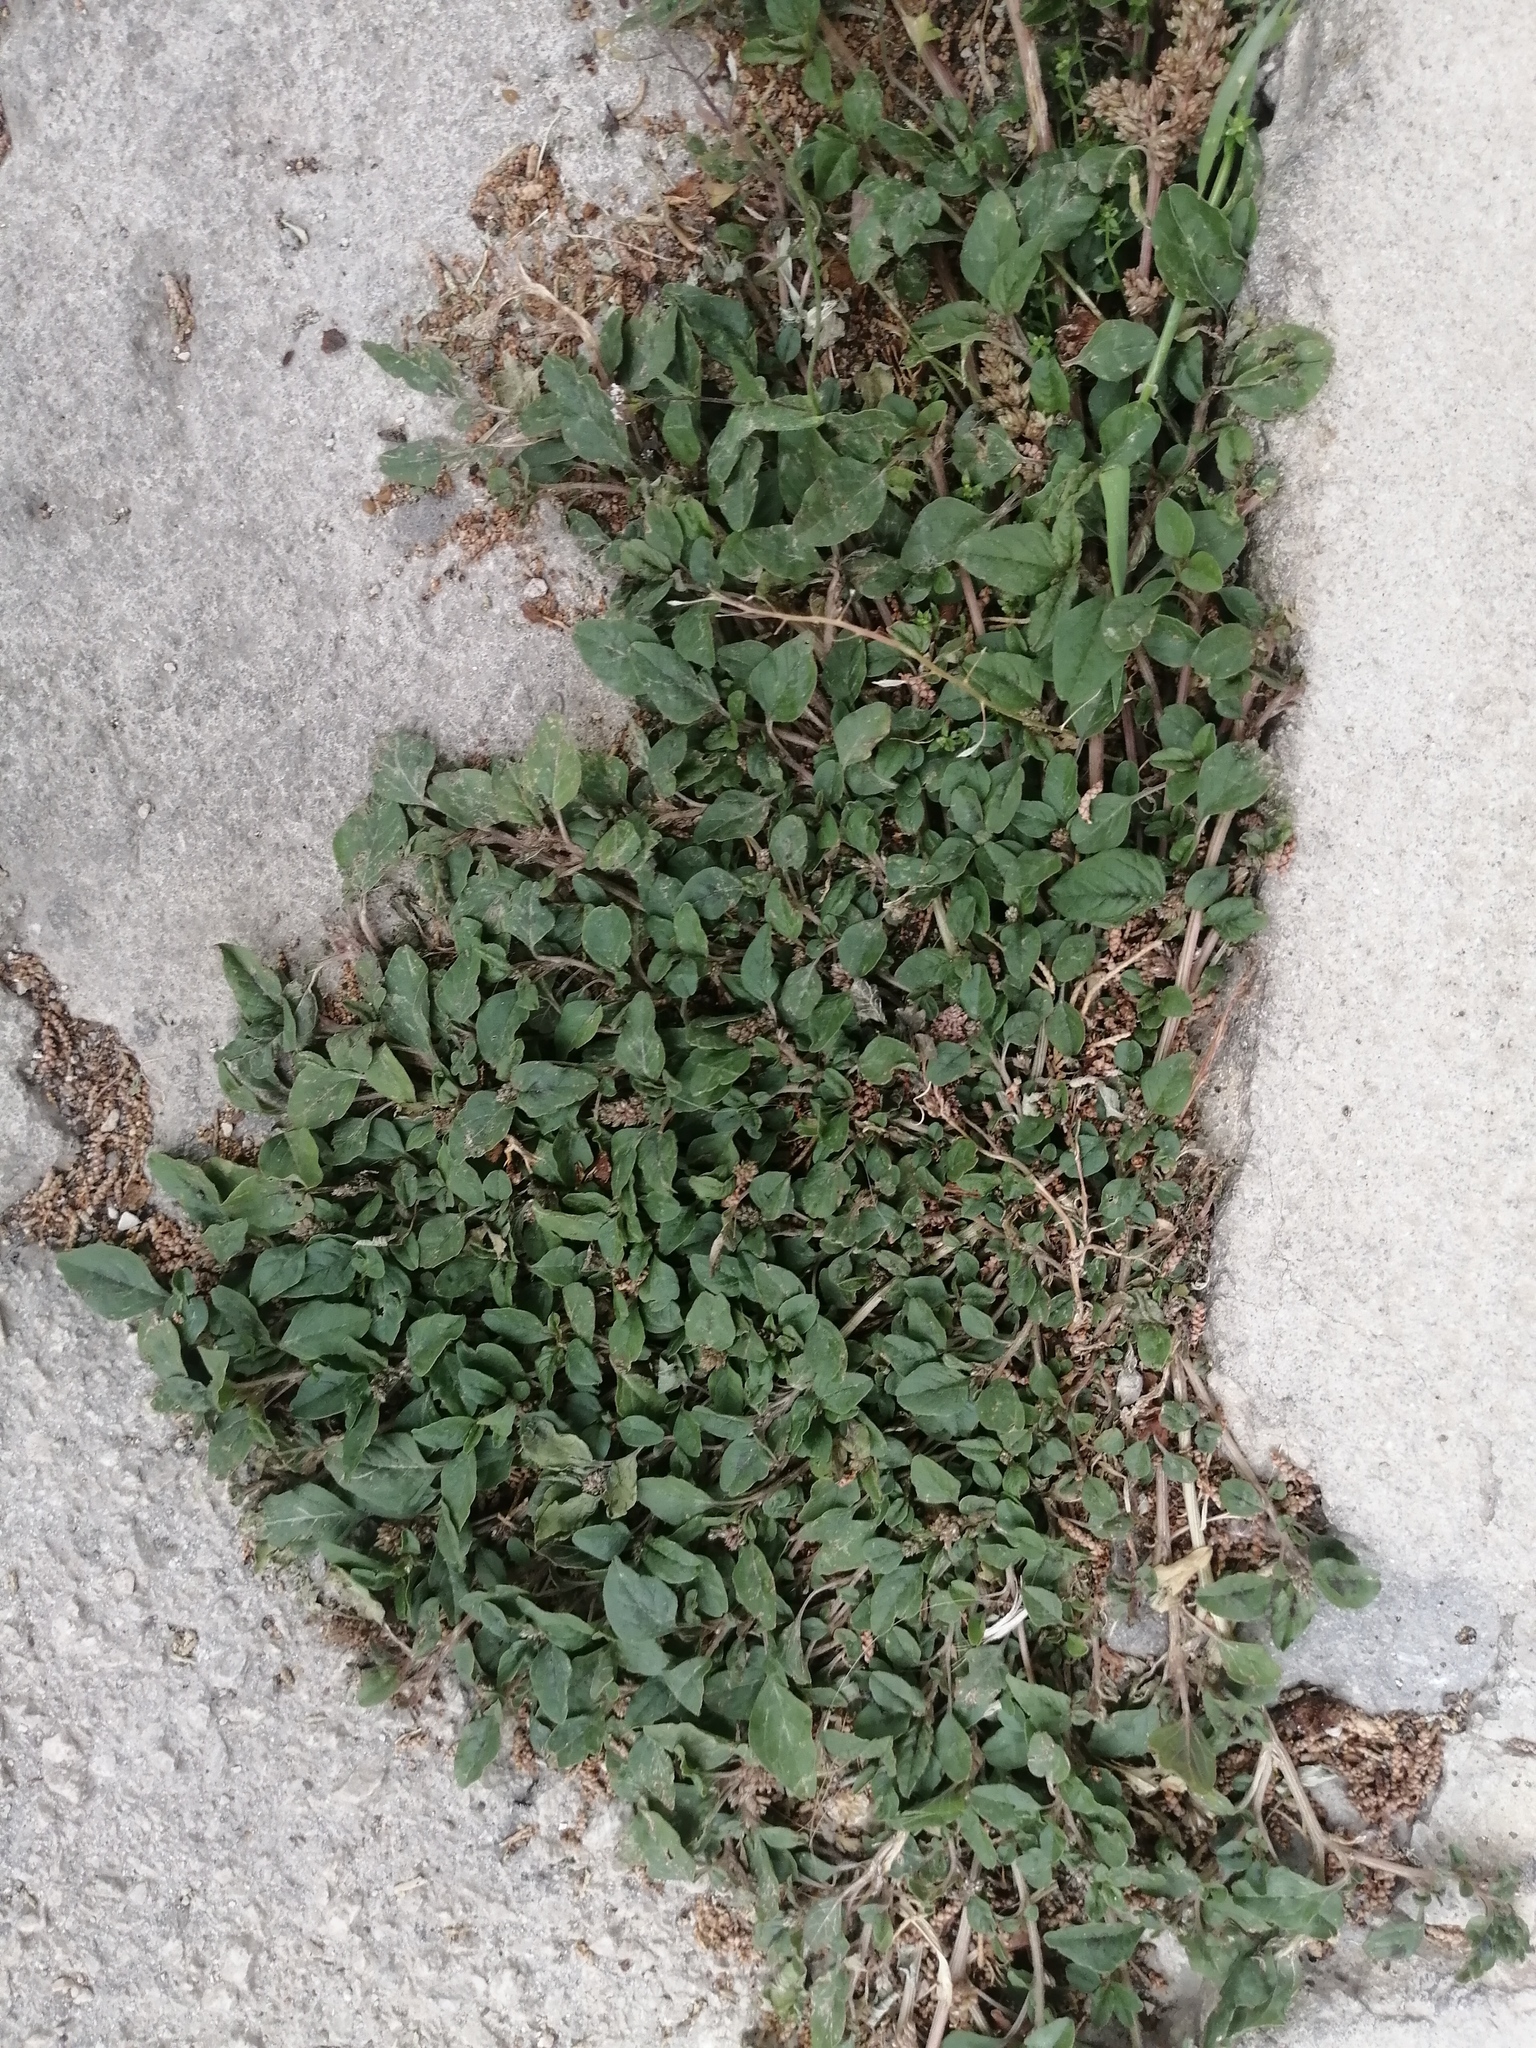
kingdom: Plantae
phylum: Tracheophyta
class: Magnoliopsida
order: Caryophyllales
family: Amaranthaceae
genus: Amaranthus
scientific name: Amaranthus deflexus
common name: Perennial pigweed
